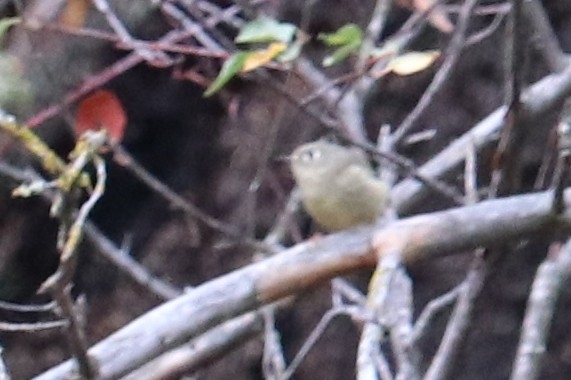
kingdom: Animalia
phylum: Chordata
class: Aves
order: Passeriformes
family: Regulidae
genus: Regulus
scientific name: Regulus calendula
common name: Ruby-crowned kinglet
